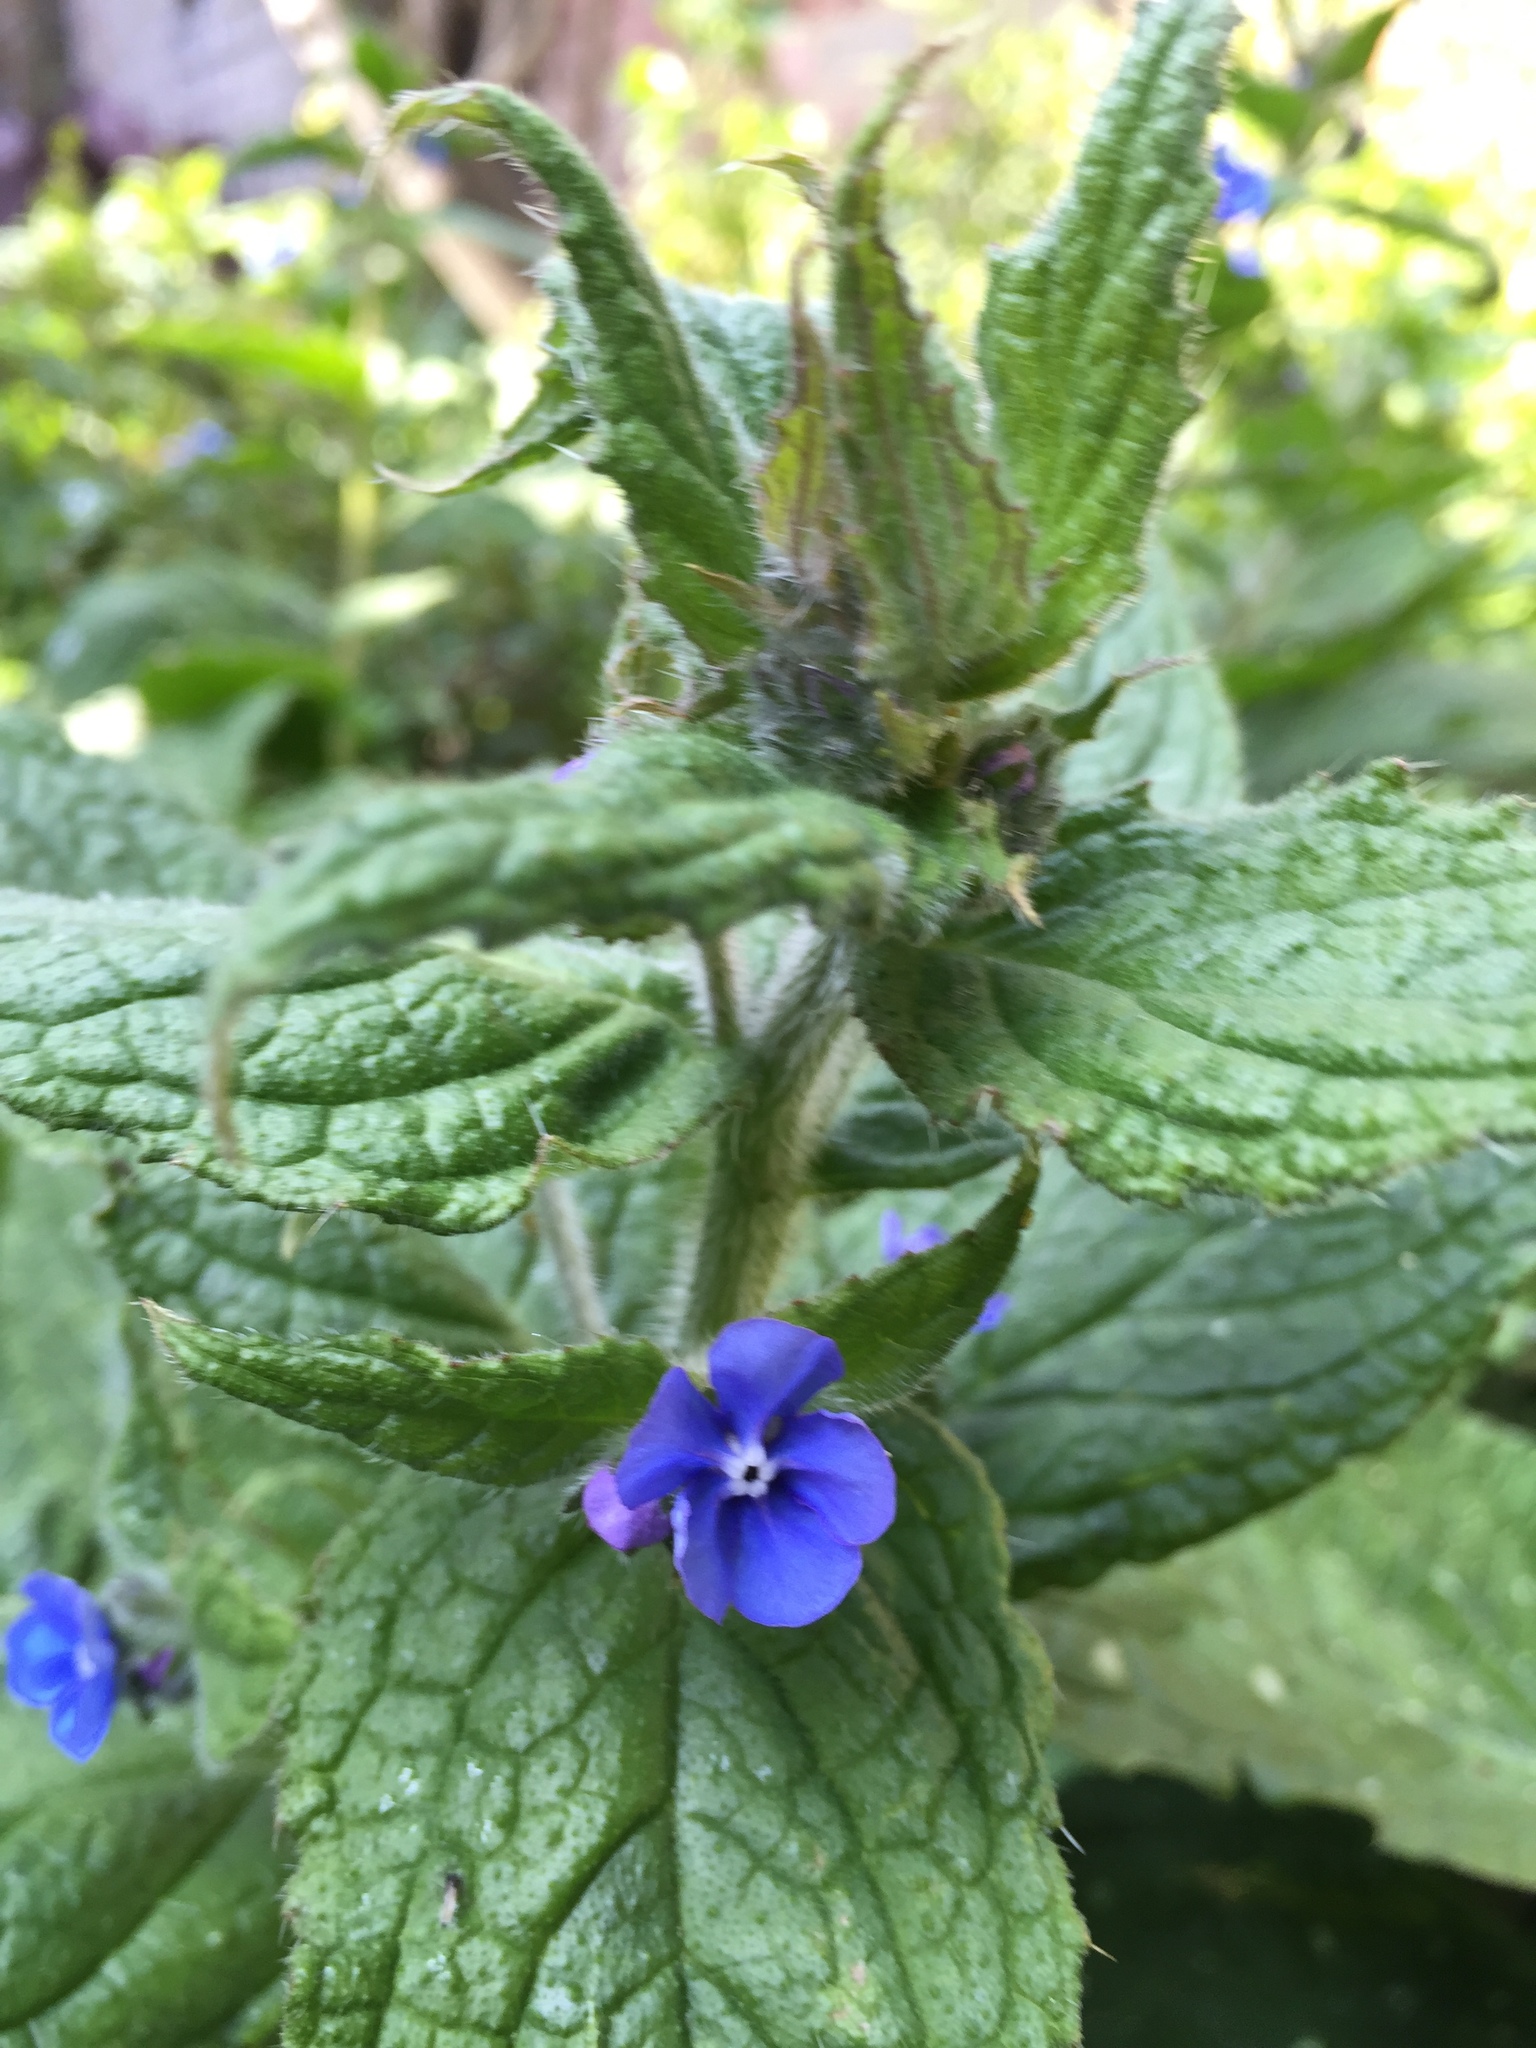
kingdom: Plantae
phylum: Tracheophyta
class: Magnoliopsida
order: Boraginales
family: Boraginaceae
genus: Pentaglottis
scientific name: Pentaglottis sempervirens
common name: Green alkanet
